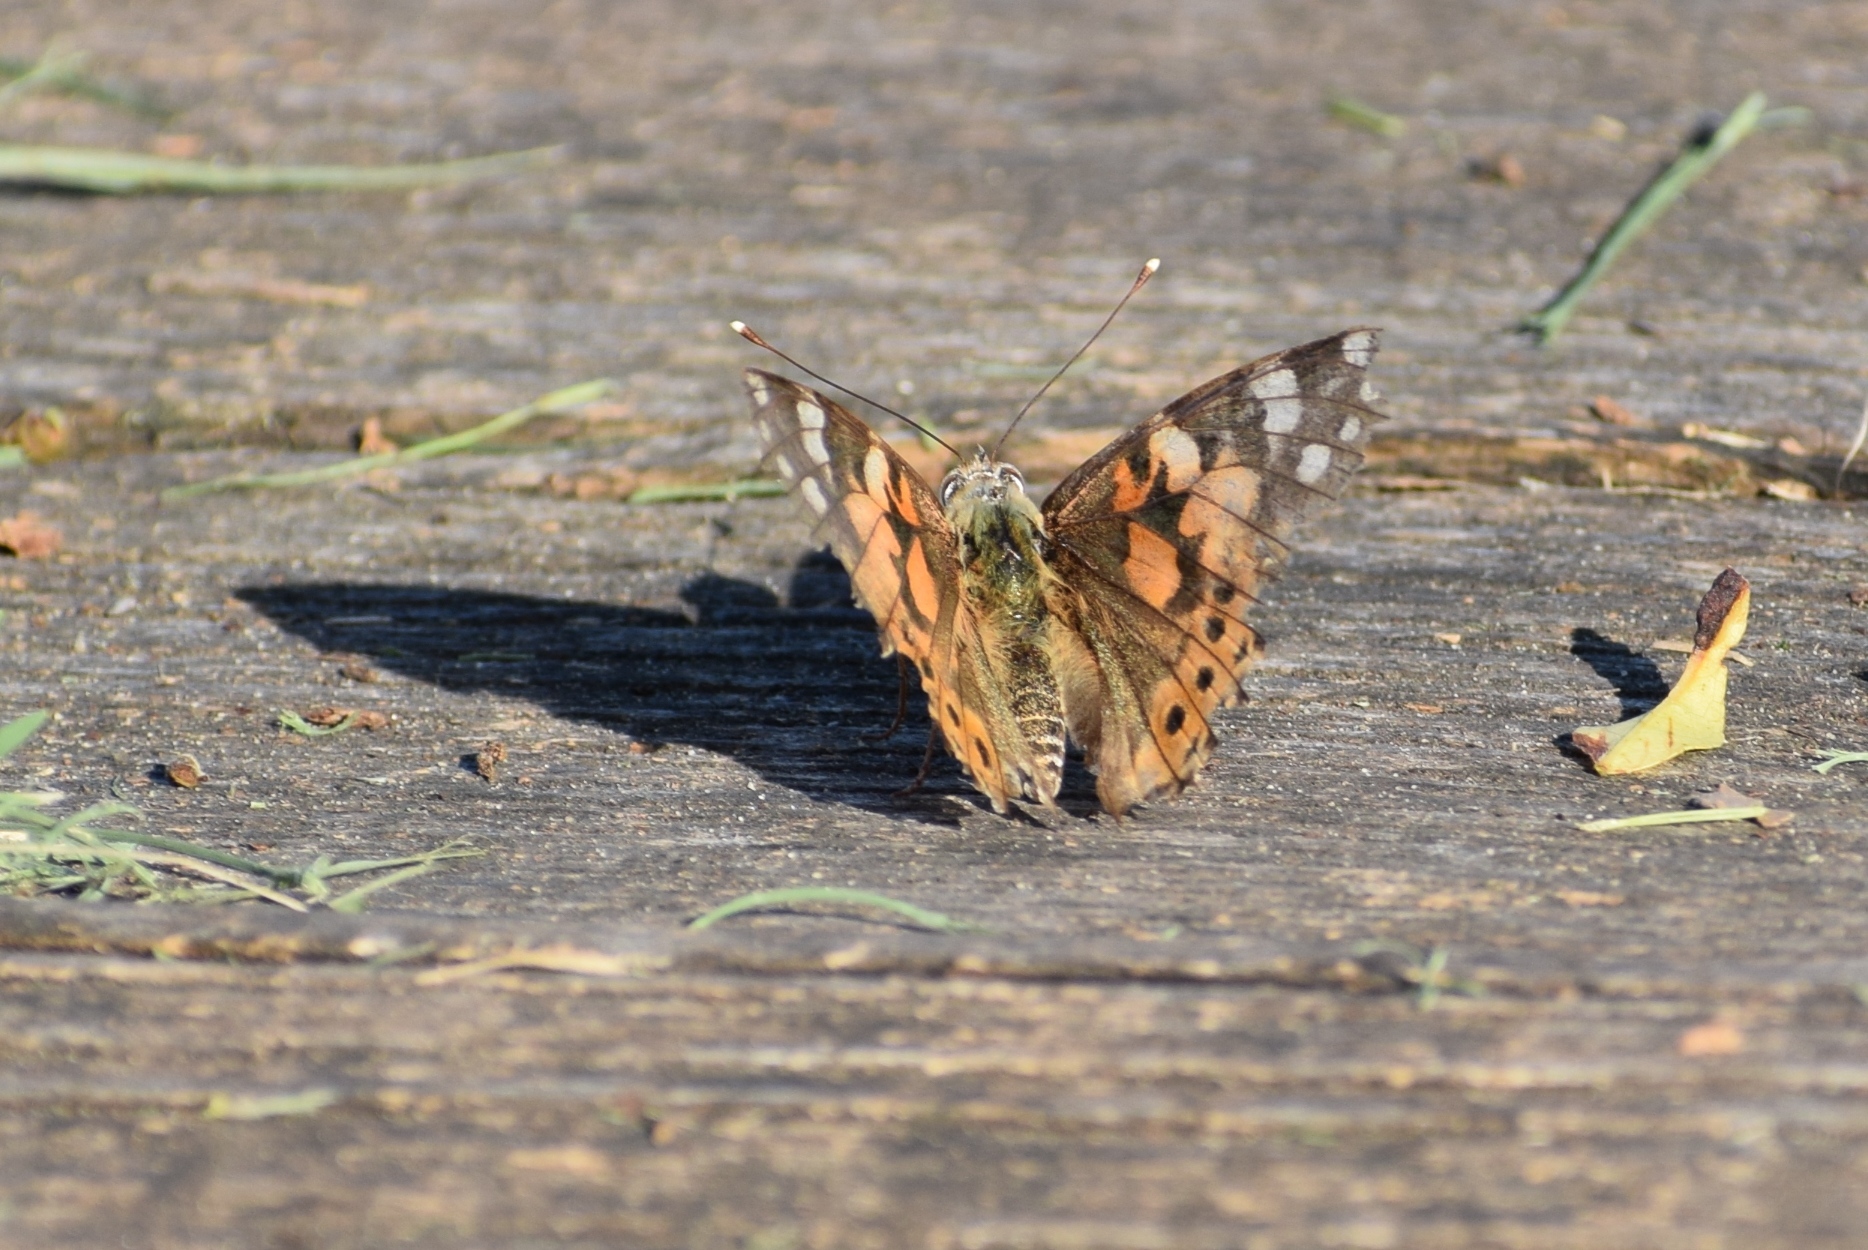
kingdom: Animalia
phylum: Arthropoda
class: Insecta
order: Lepidoptera
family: Nymphalidae
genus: Vanessa
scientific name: Vanessa cardui
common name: Painted lady
